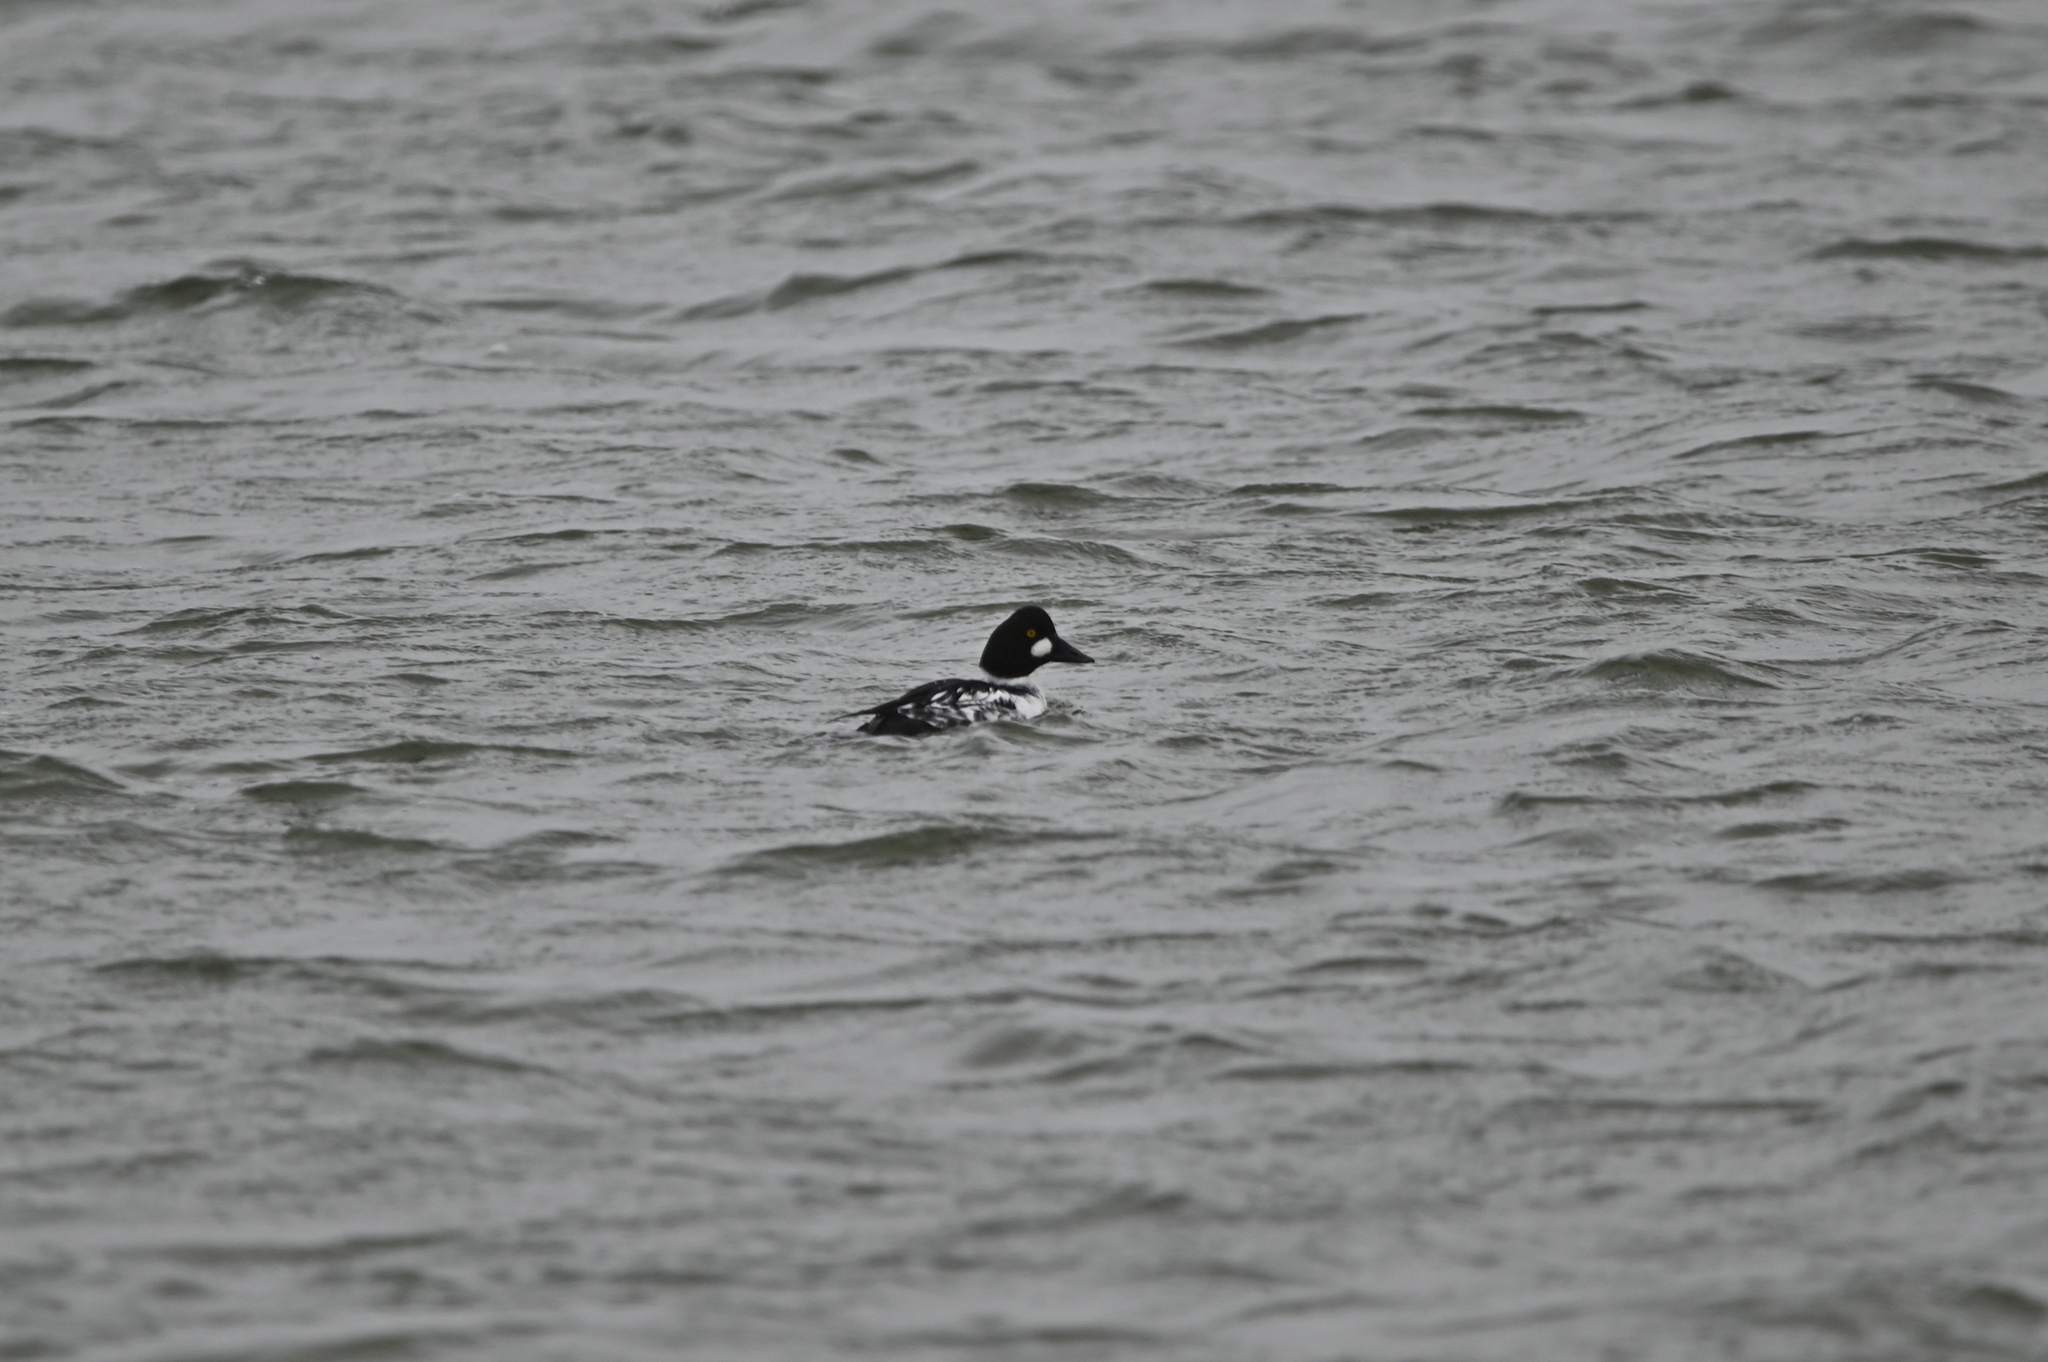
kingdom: Animalia
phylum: Chordata
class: Aves
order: Anseriformes
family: Anatidae
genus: Bucephala
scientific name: Bucephala clangula
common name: Common goldeneye
